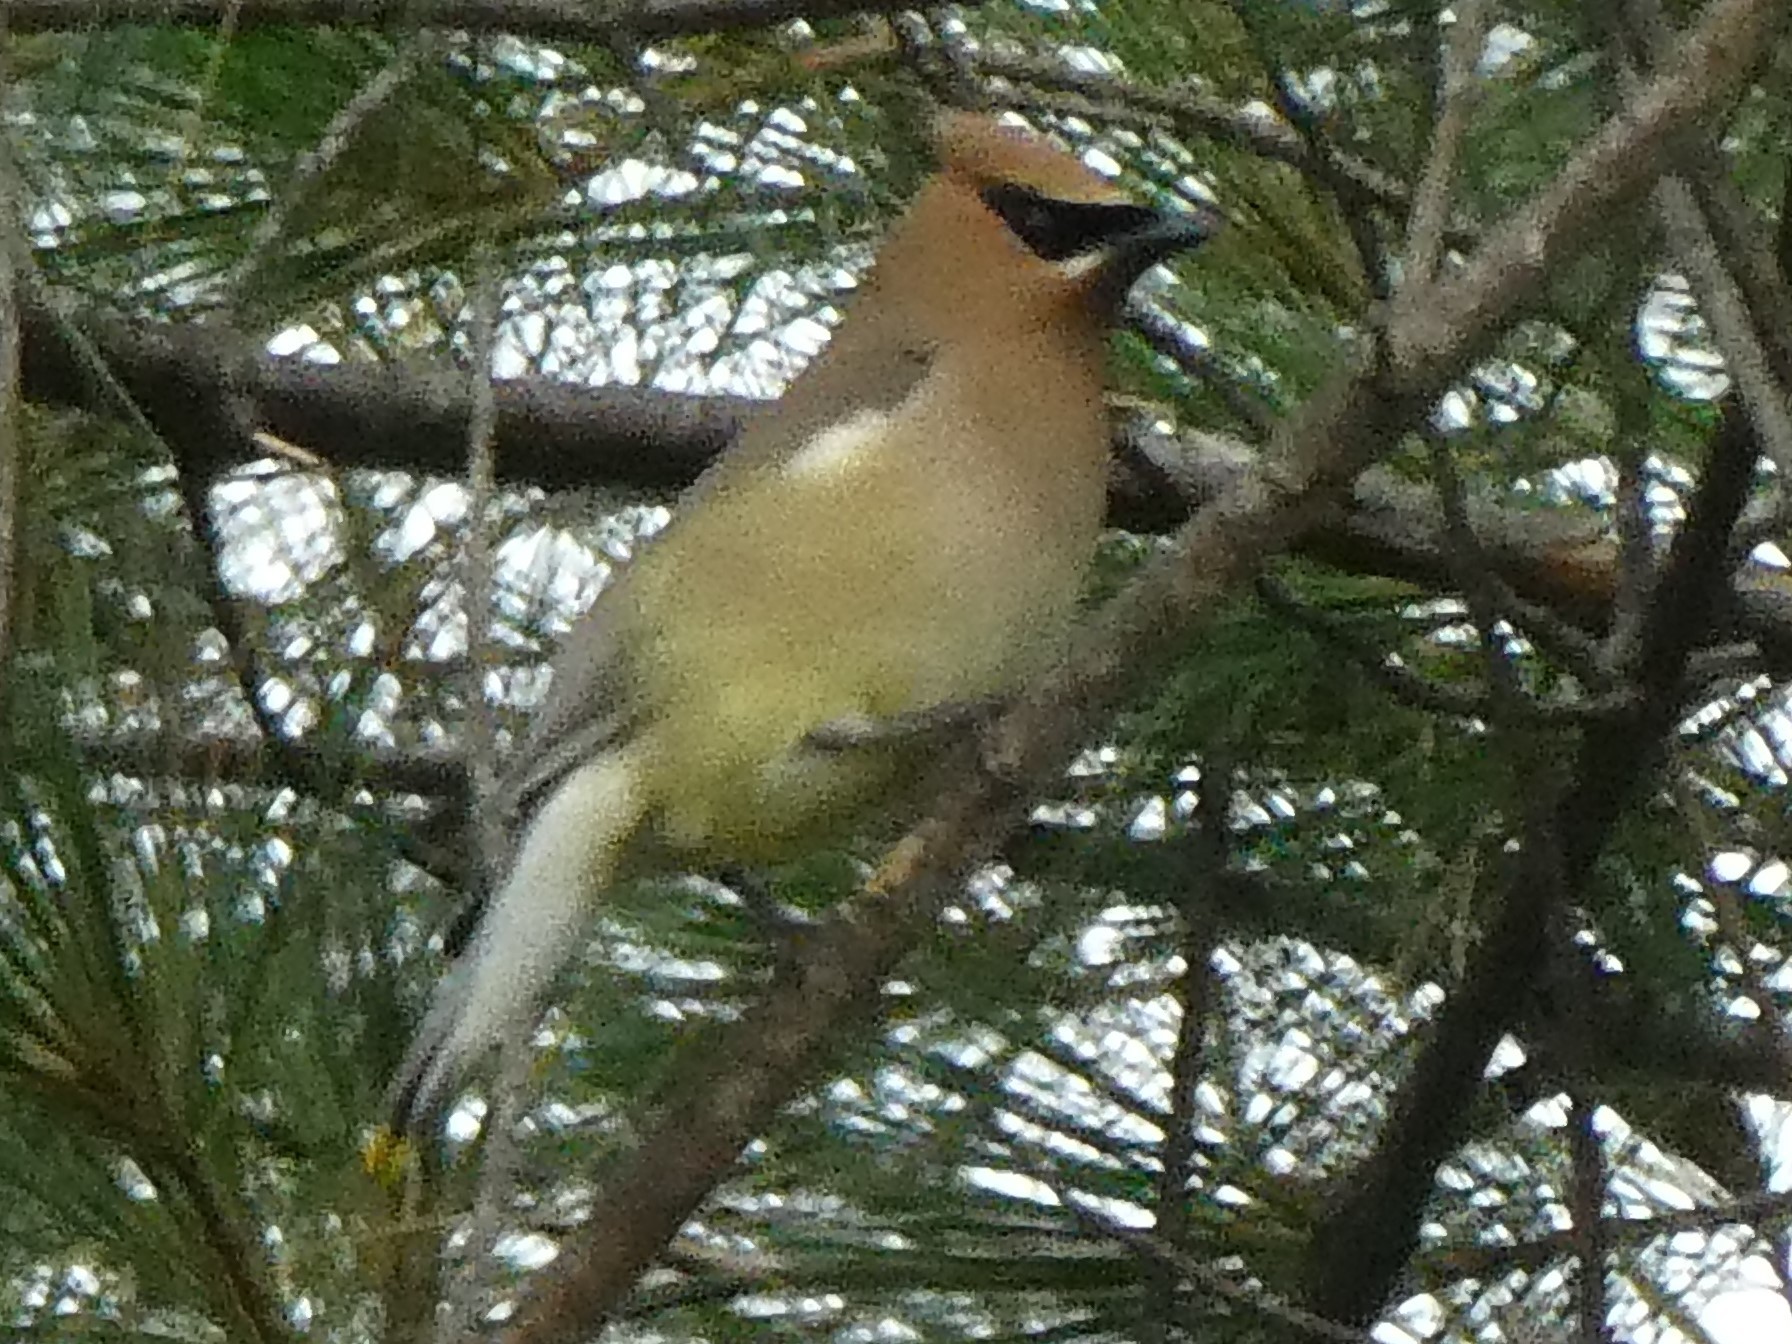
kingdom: Animalia
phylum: Chordata
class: Aves
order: Passeriformes
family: Bombycillidae
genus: Bombycilla
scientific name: Bombycilla cedrorum
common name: Cedar waxwing
